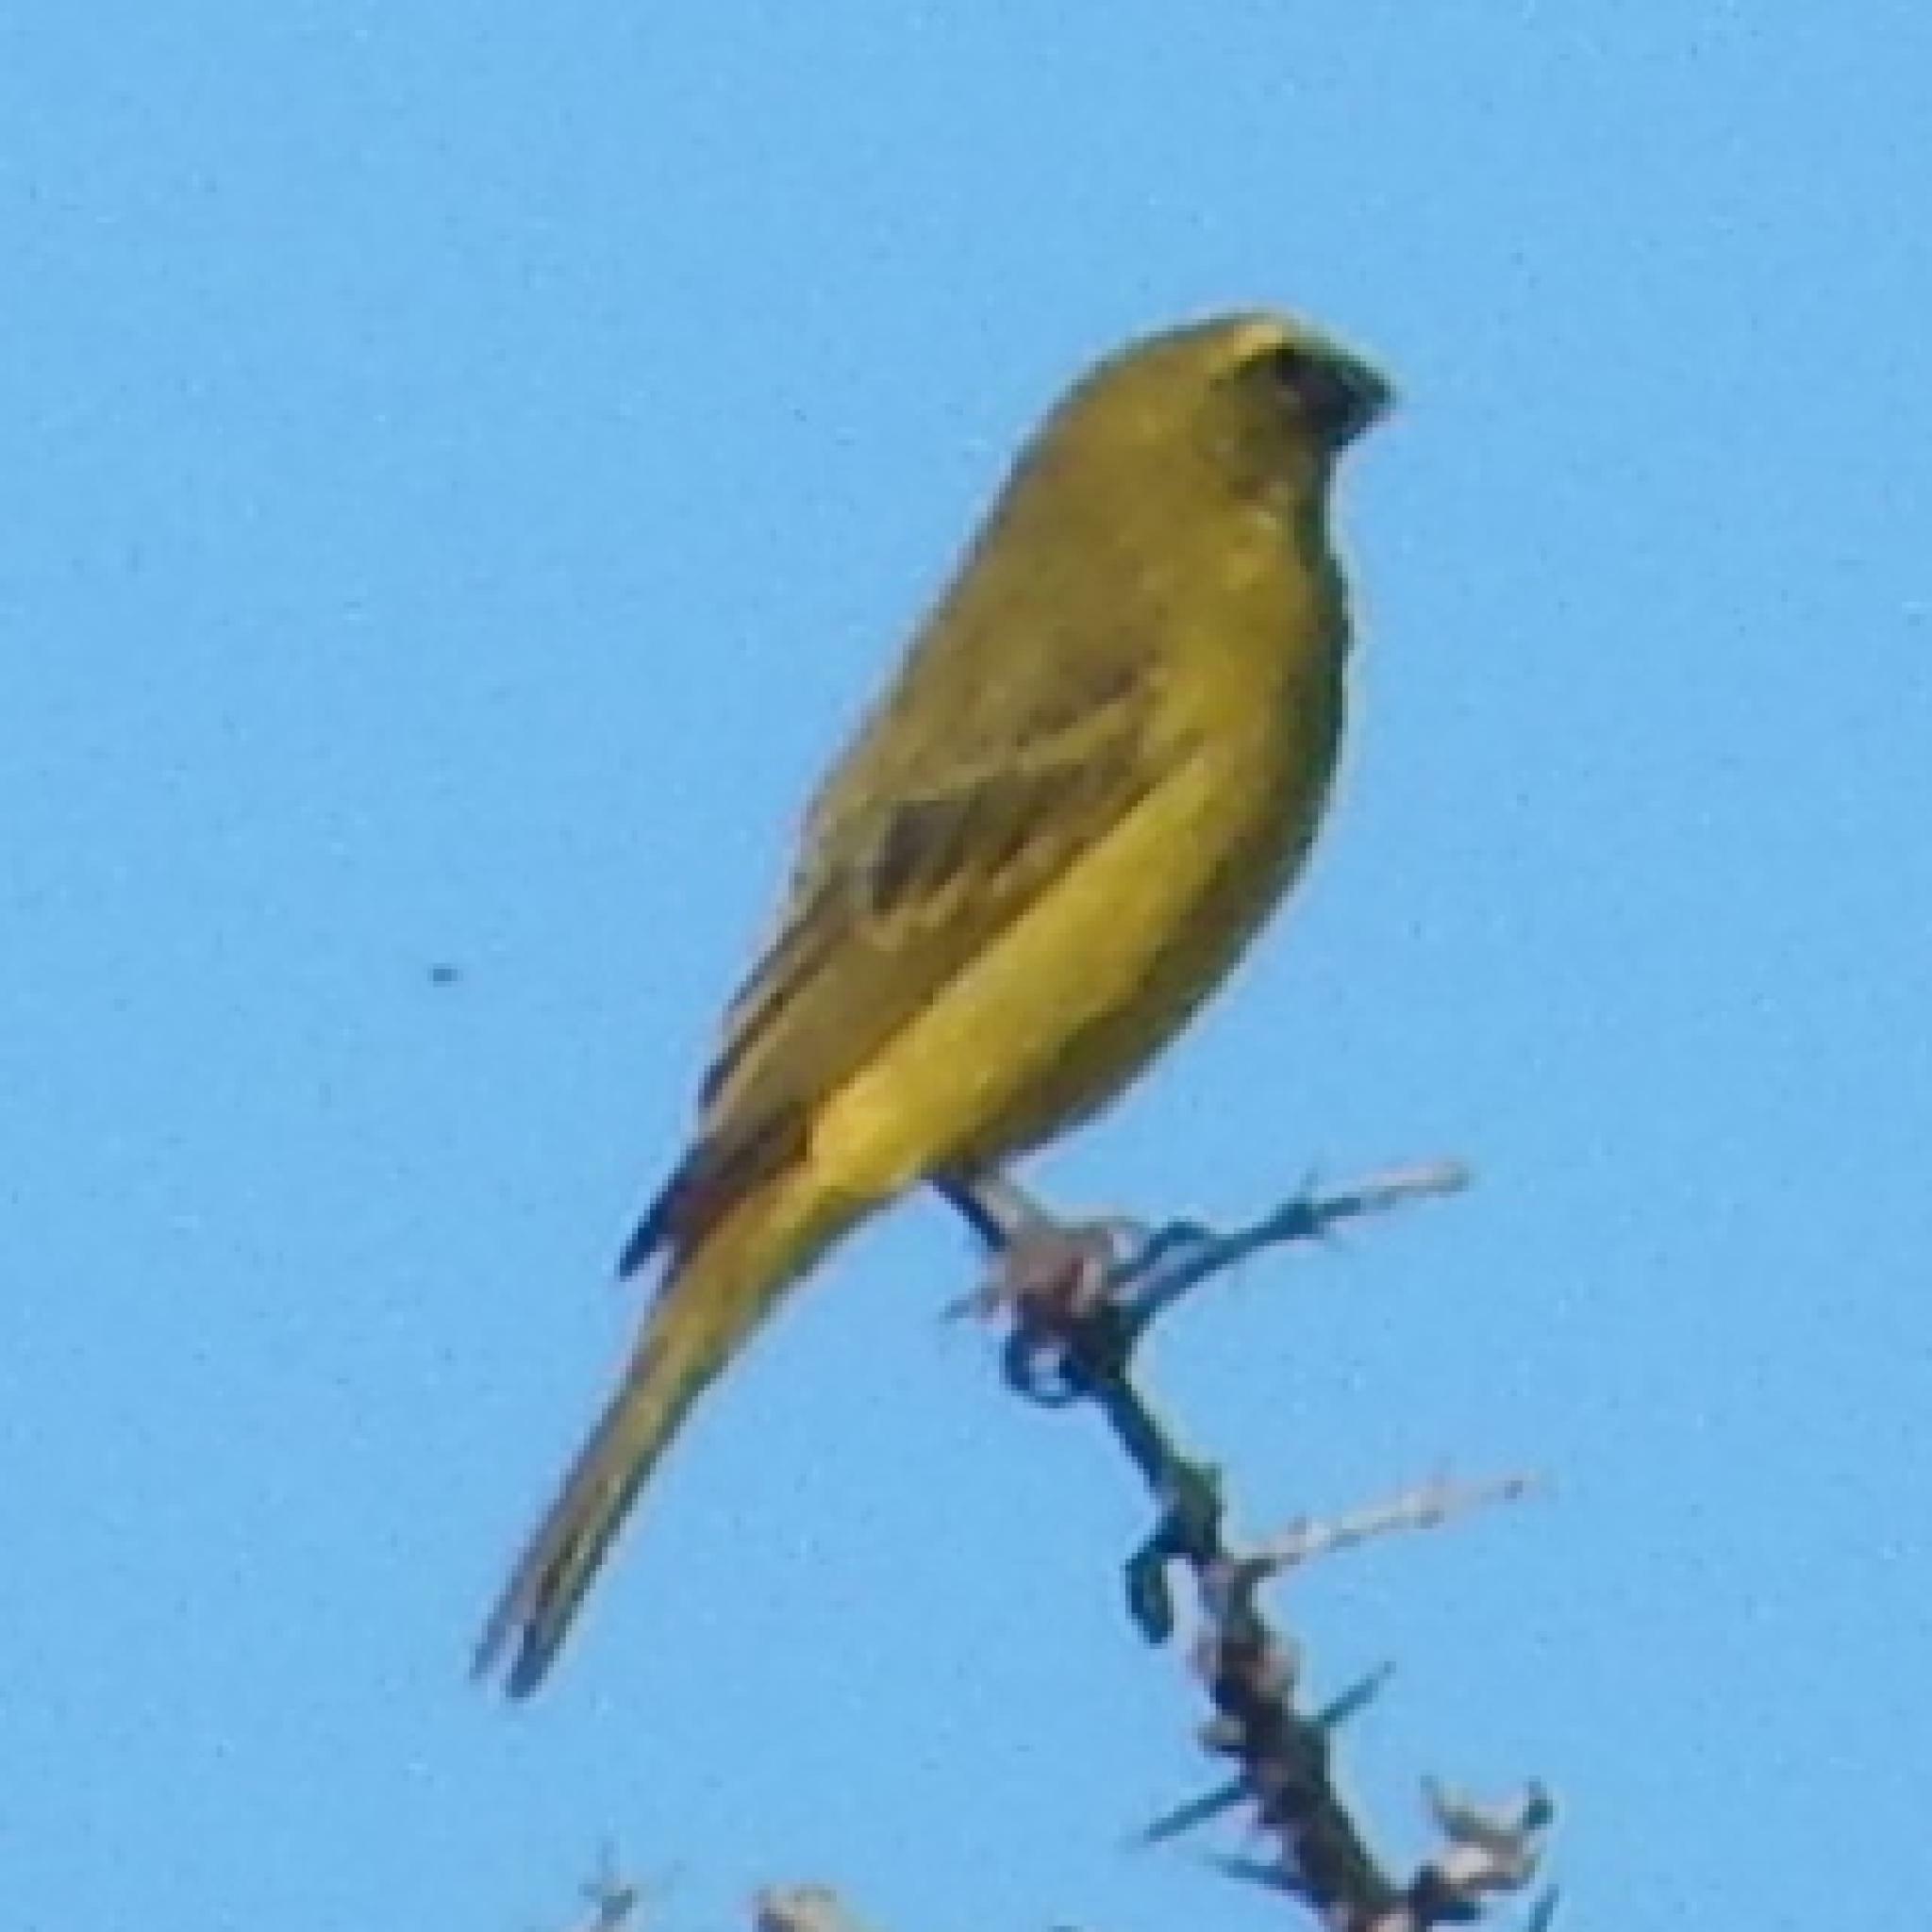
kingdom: Animalia
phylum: Chordata
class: Aves
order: Passeriformes
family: Fringillidae
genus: Crithagra
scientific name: Crithagra sulphurata
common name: Brimstone canary
